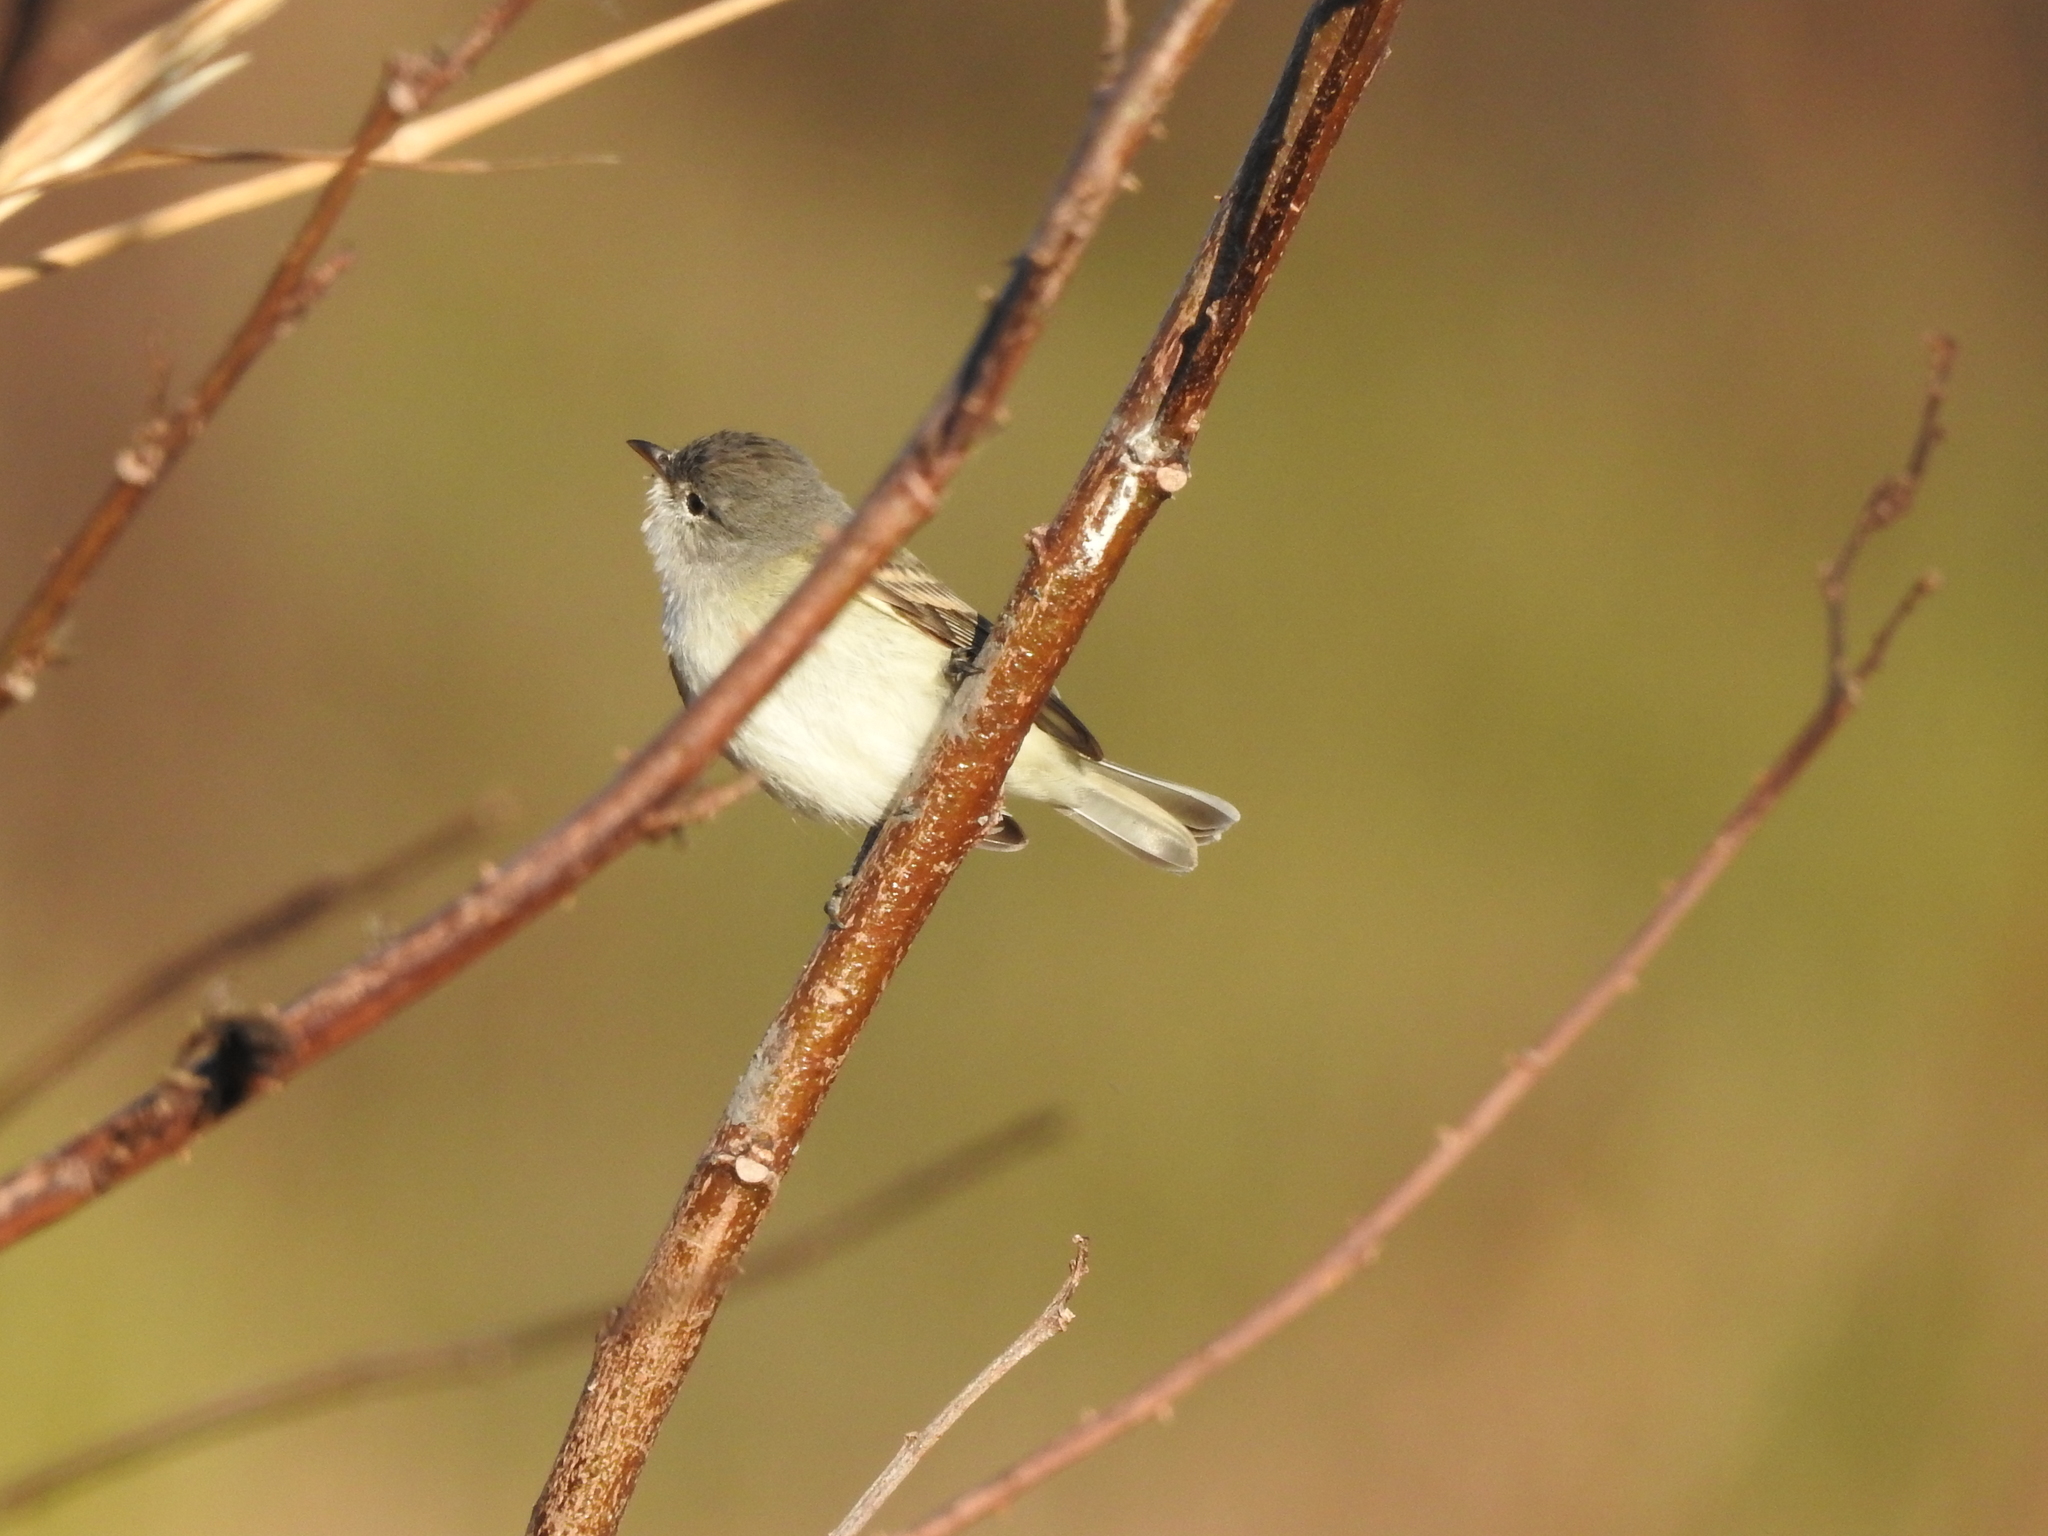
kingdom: Animalia
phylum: Chordata
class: Aves
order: Passeriformes
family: Tyrannidae
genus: Serpophaga
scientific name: Serpophaga griseicapilla
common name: Straneck's tyrannulet
